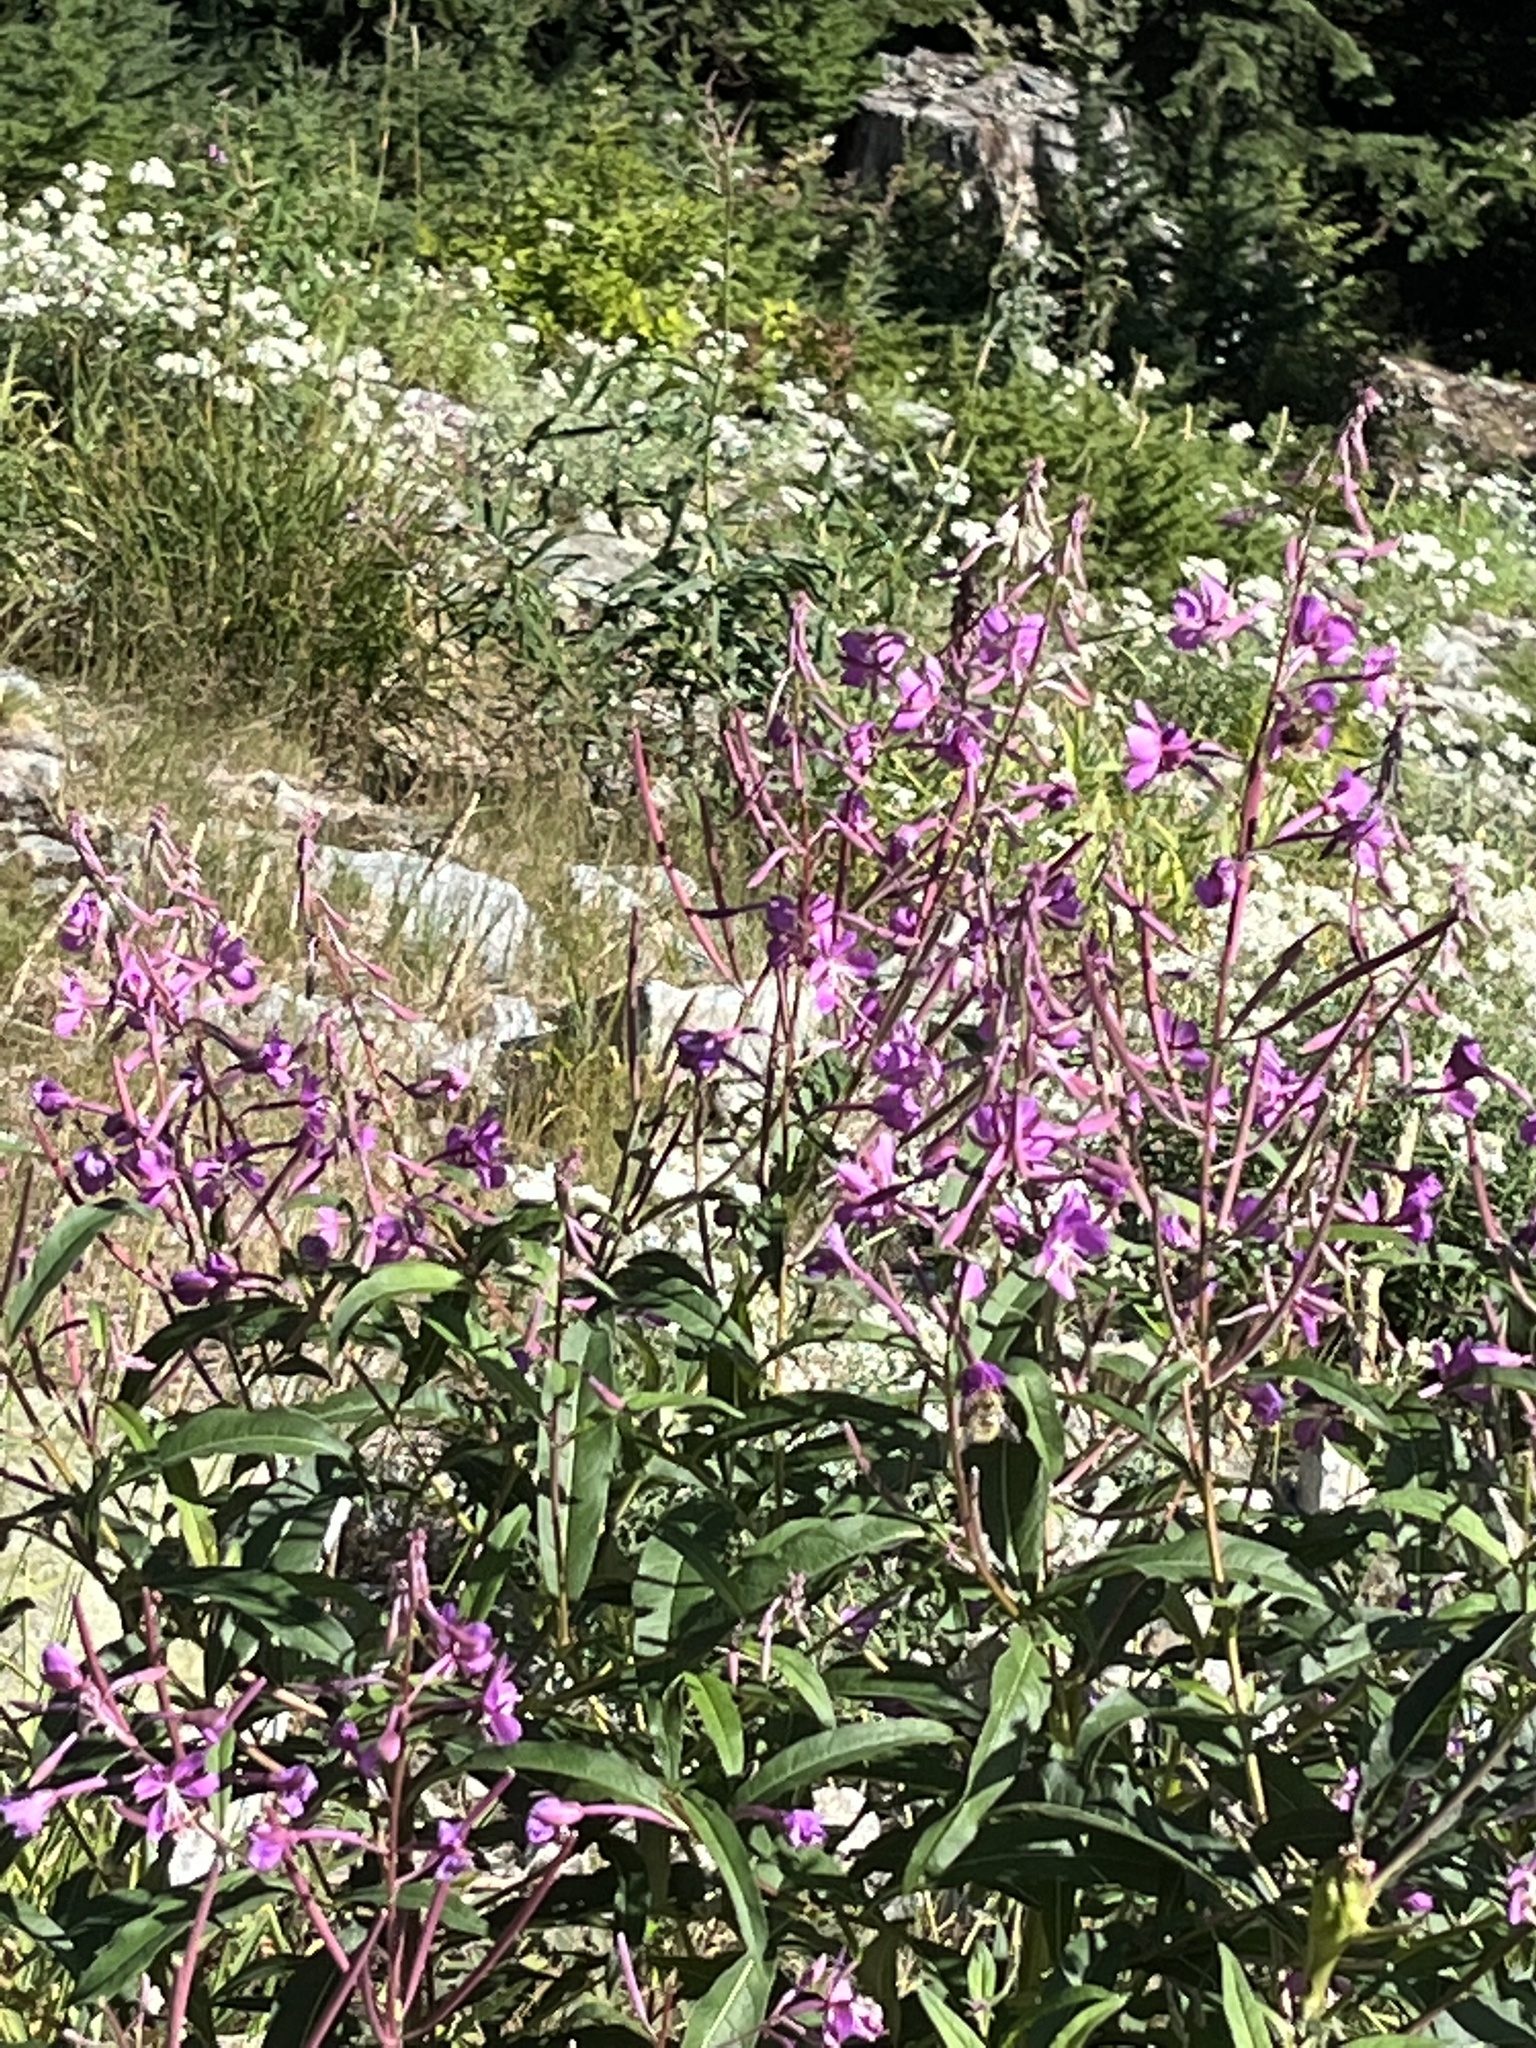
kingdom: Plantae
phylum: Tracheophyta
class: Magnoliopsida
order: Myrtales
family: Onagraceae
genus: Chamaenerion
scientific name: Chamaenerion angustifolium
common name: Fireweed
